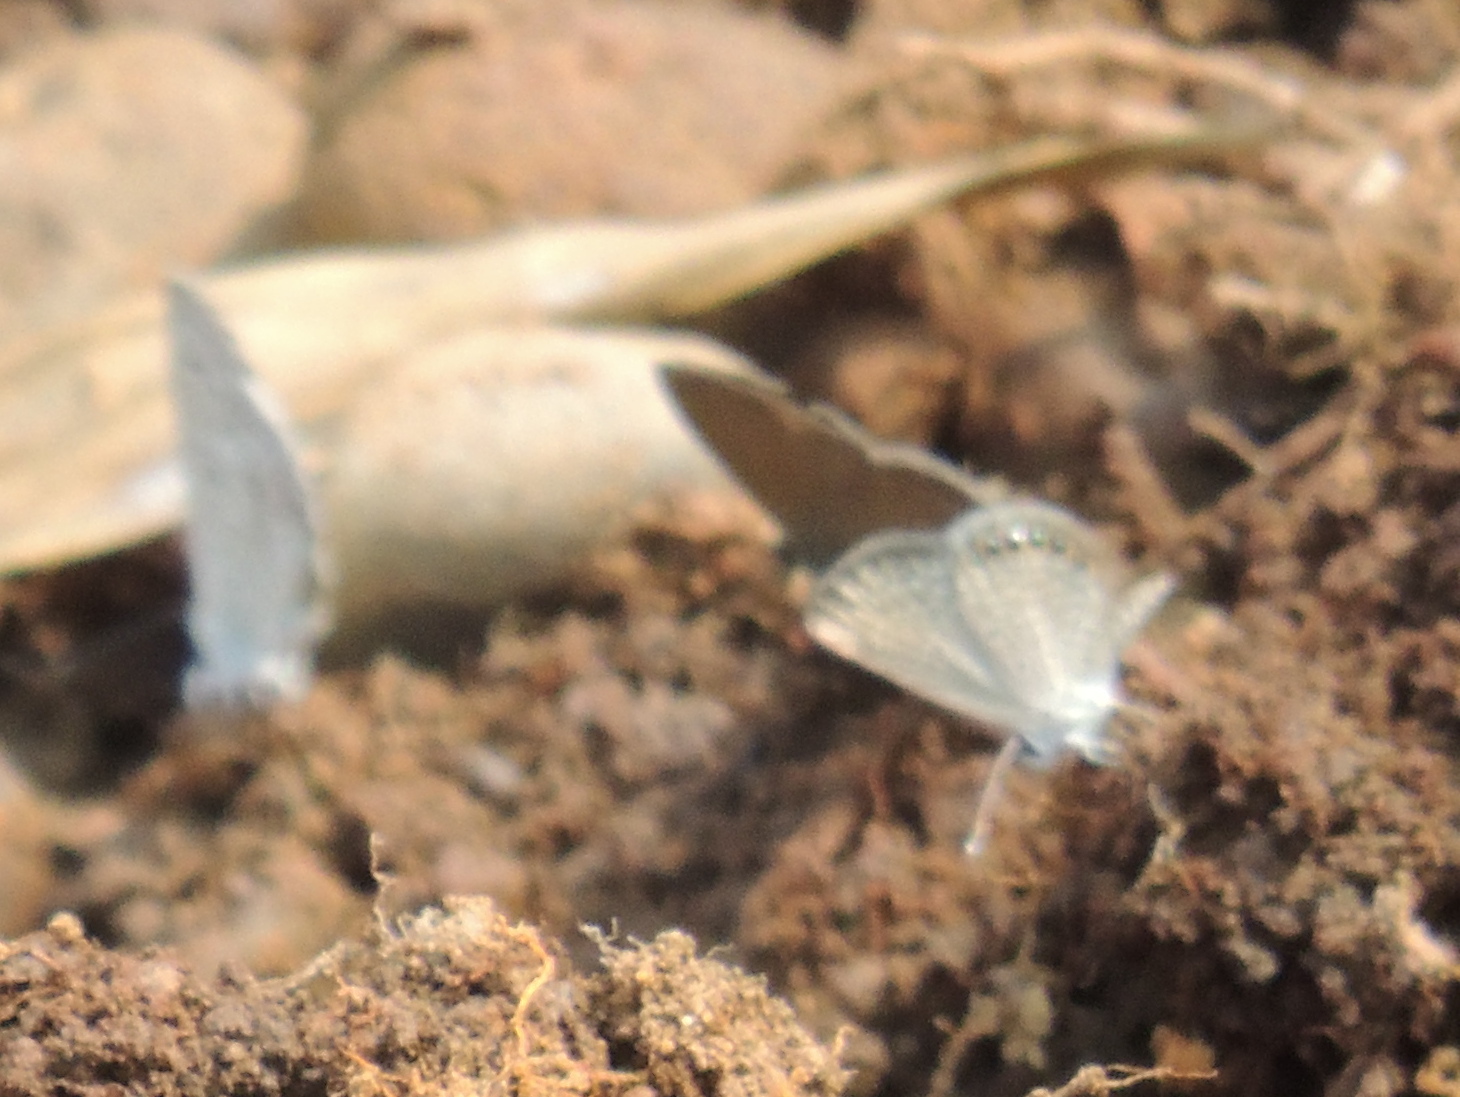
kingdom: Animalia
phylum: Arthropoda
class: Insecta
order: Lepidoptera
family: Lycaenidae
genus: Freyeria
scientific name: Freyeria putli
